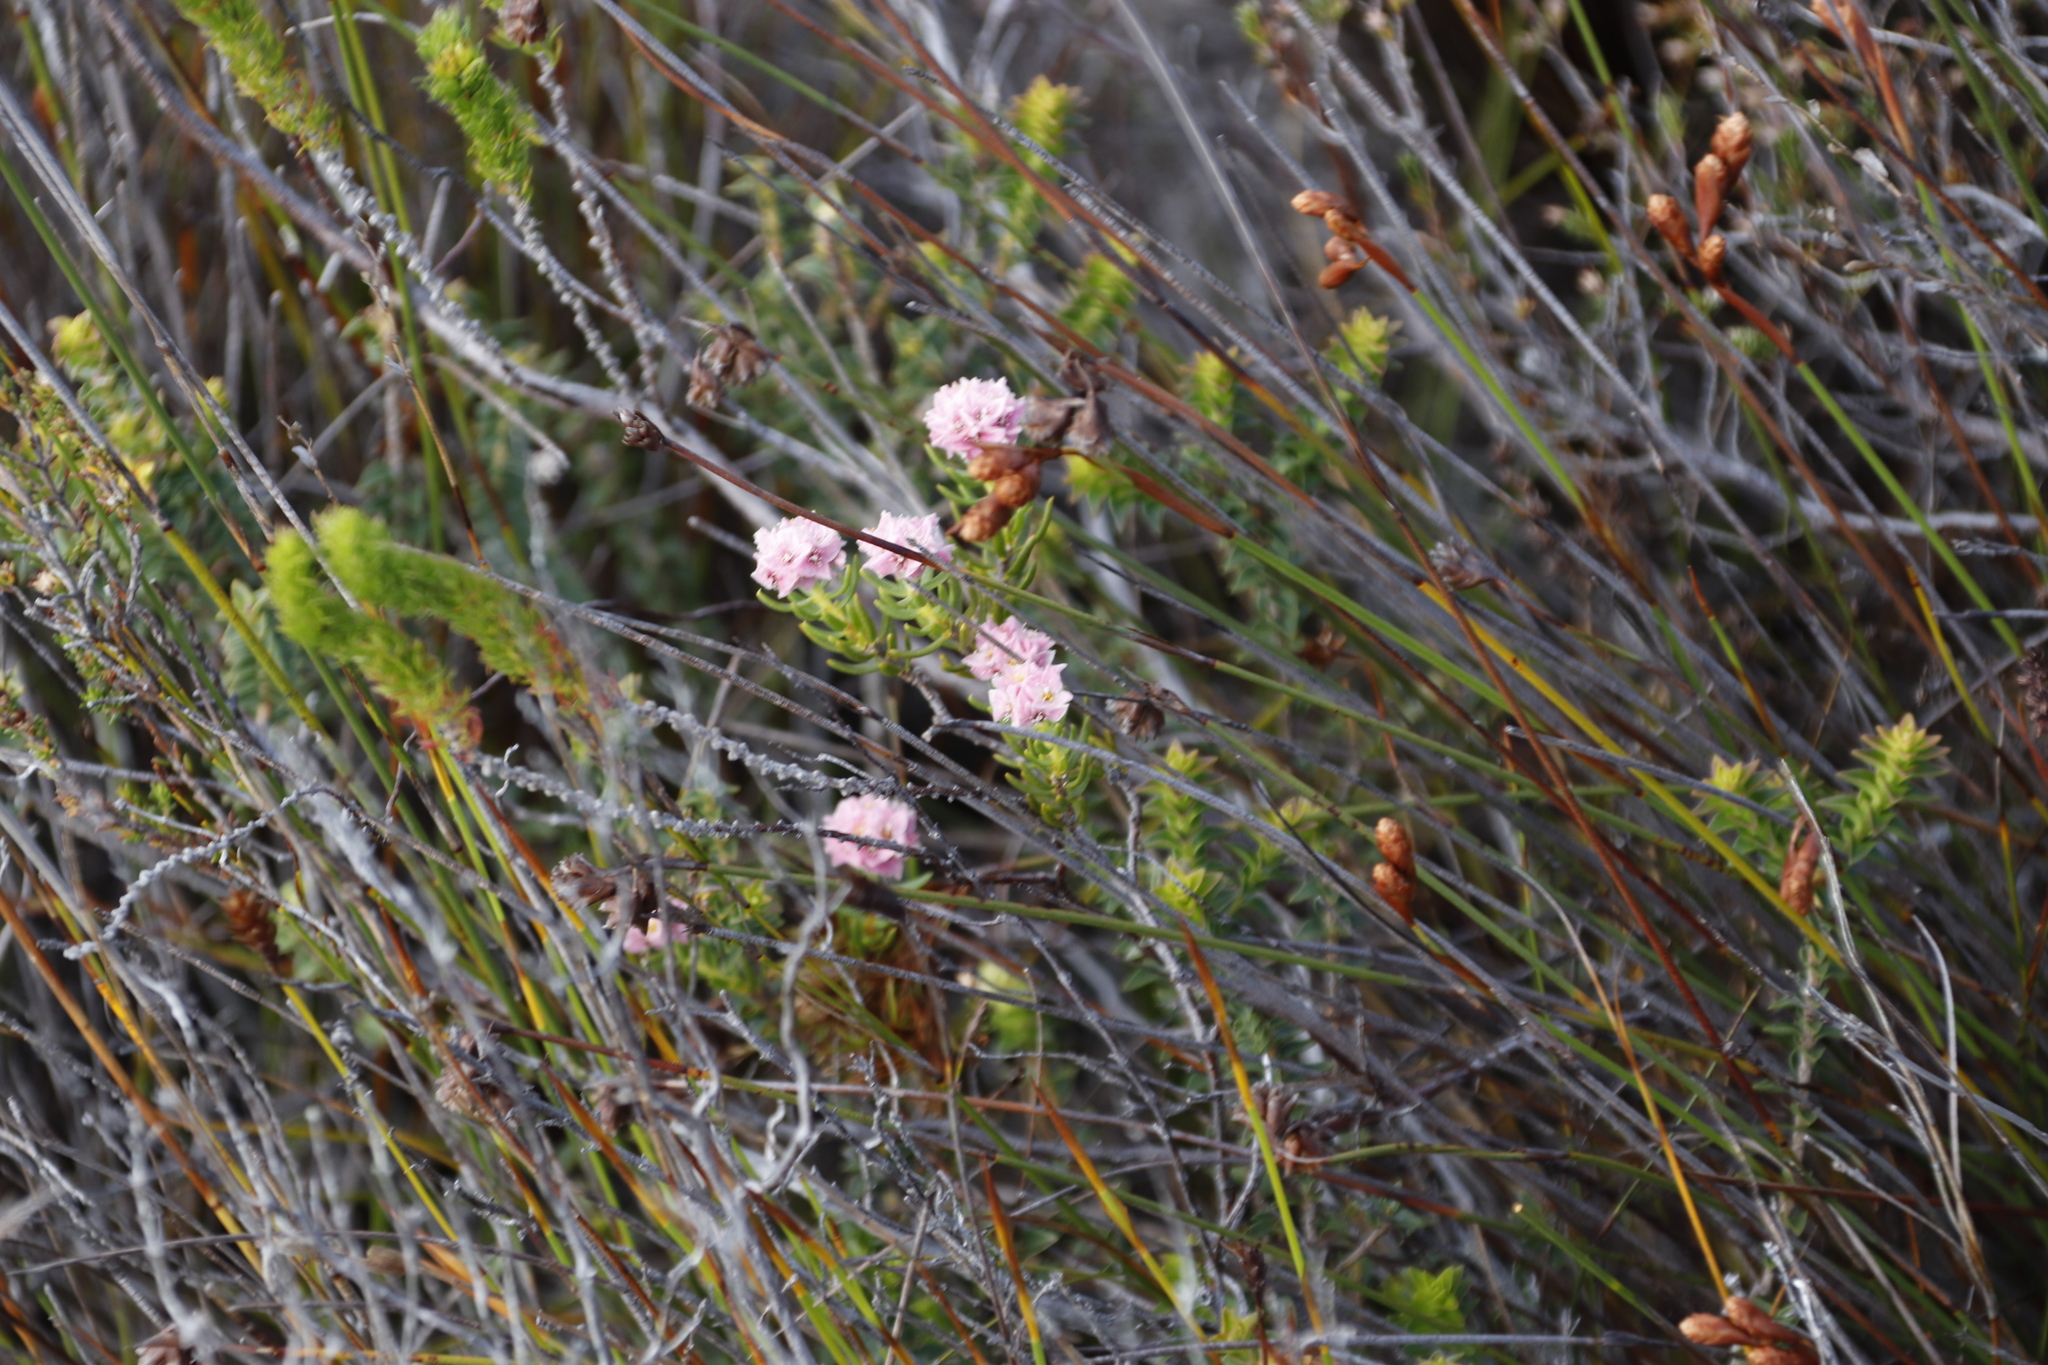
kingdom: Plantae
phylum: Tracheophyta
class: Magnoliopsida
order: Malvales
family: Thymelaeaceae
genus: Lachnaea
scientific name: Lachnaea densiflora
